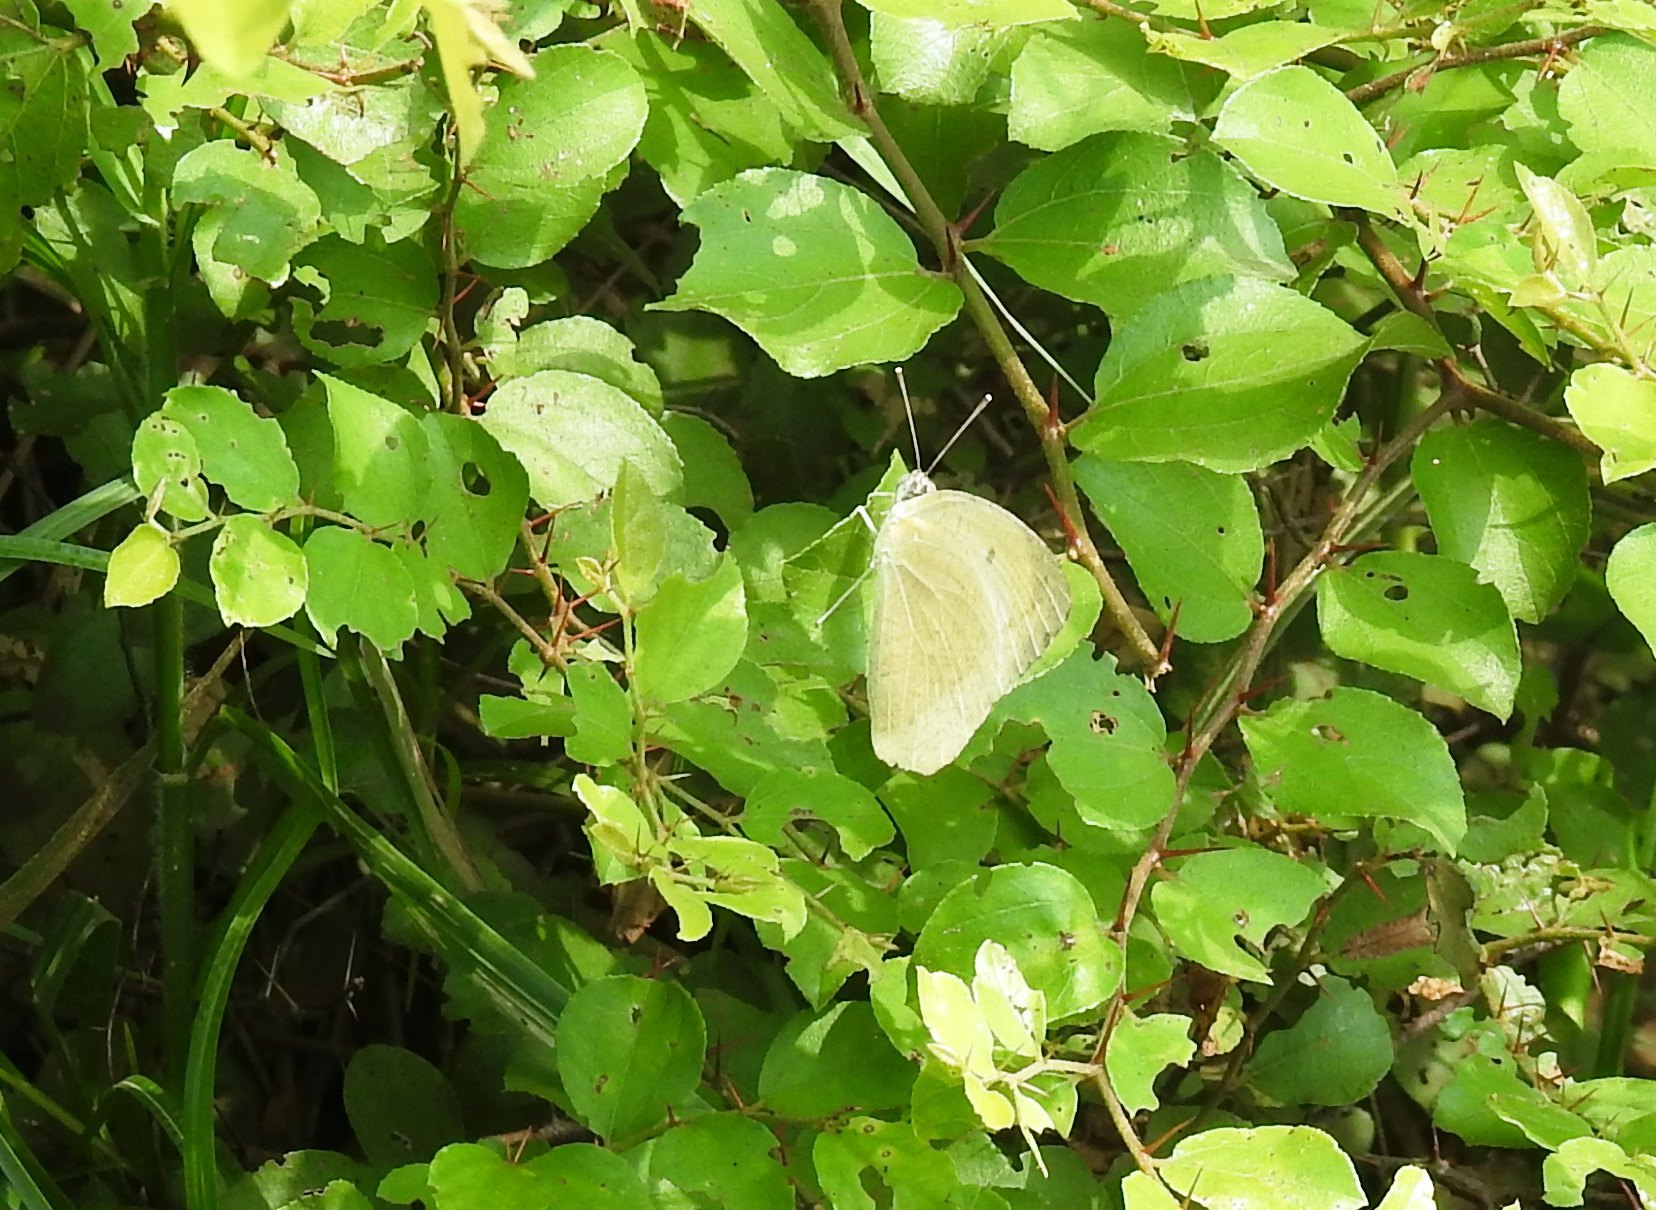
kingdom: Animalia
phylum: Arthropoda
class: Insecta
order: Lepidoptera
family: Pieridae
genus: Catopsilia
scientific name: Catopsilia pyranthe
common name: Mottled emigrant
